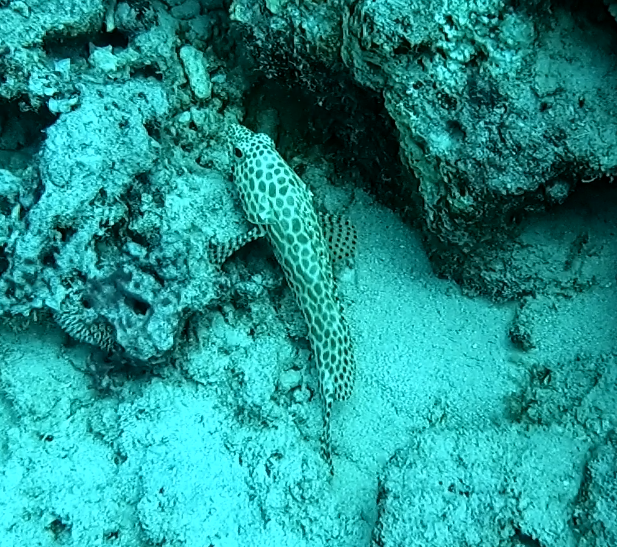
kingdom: Animalia
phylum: Chordata
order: Perciformes
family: Serranidae
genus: Epinephelus
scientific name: Epinephelus merra
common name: Honeycomb grouper
